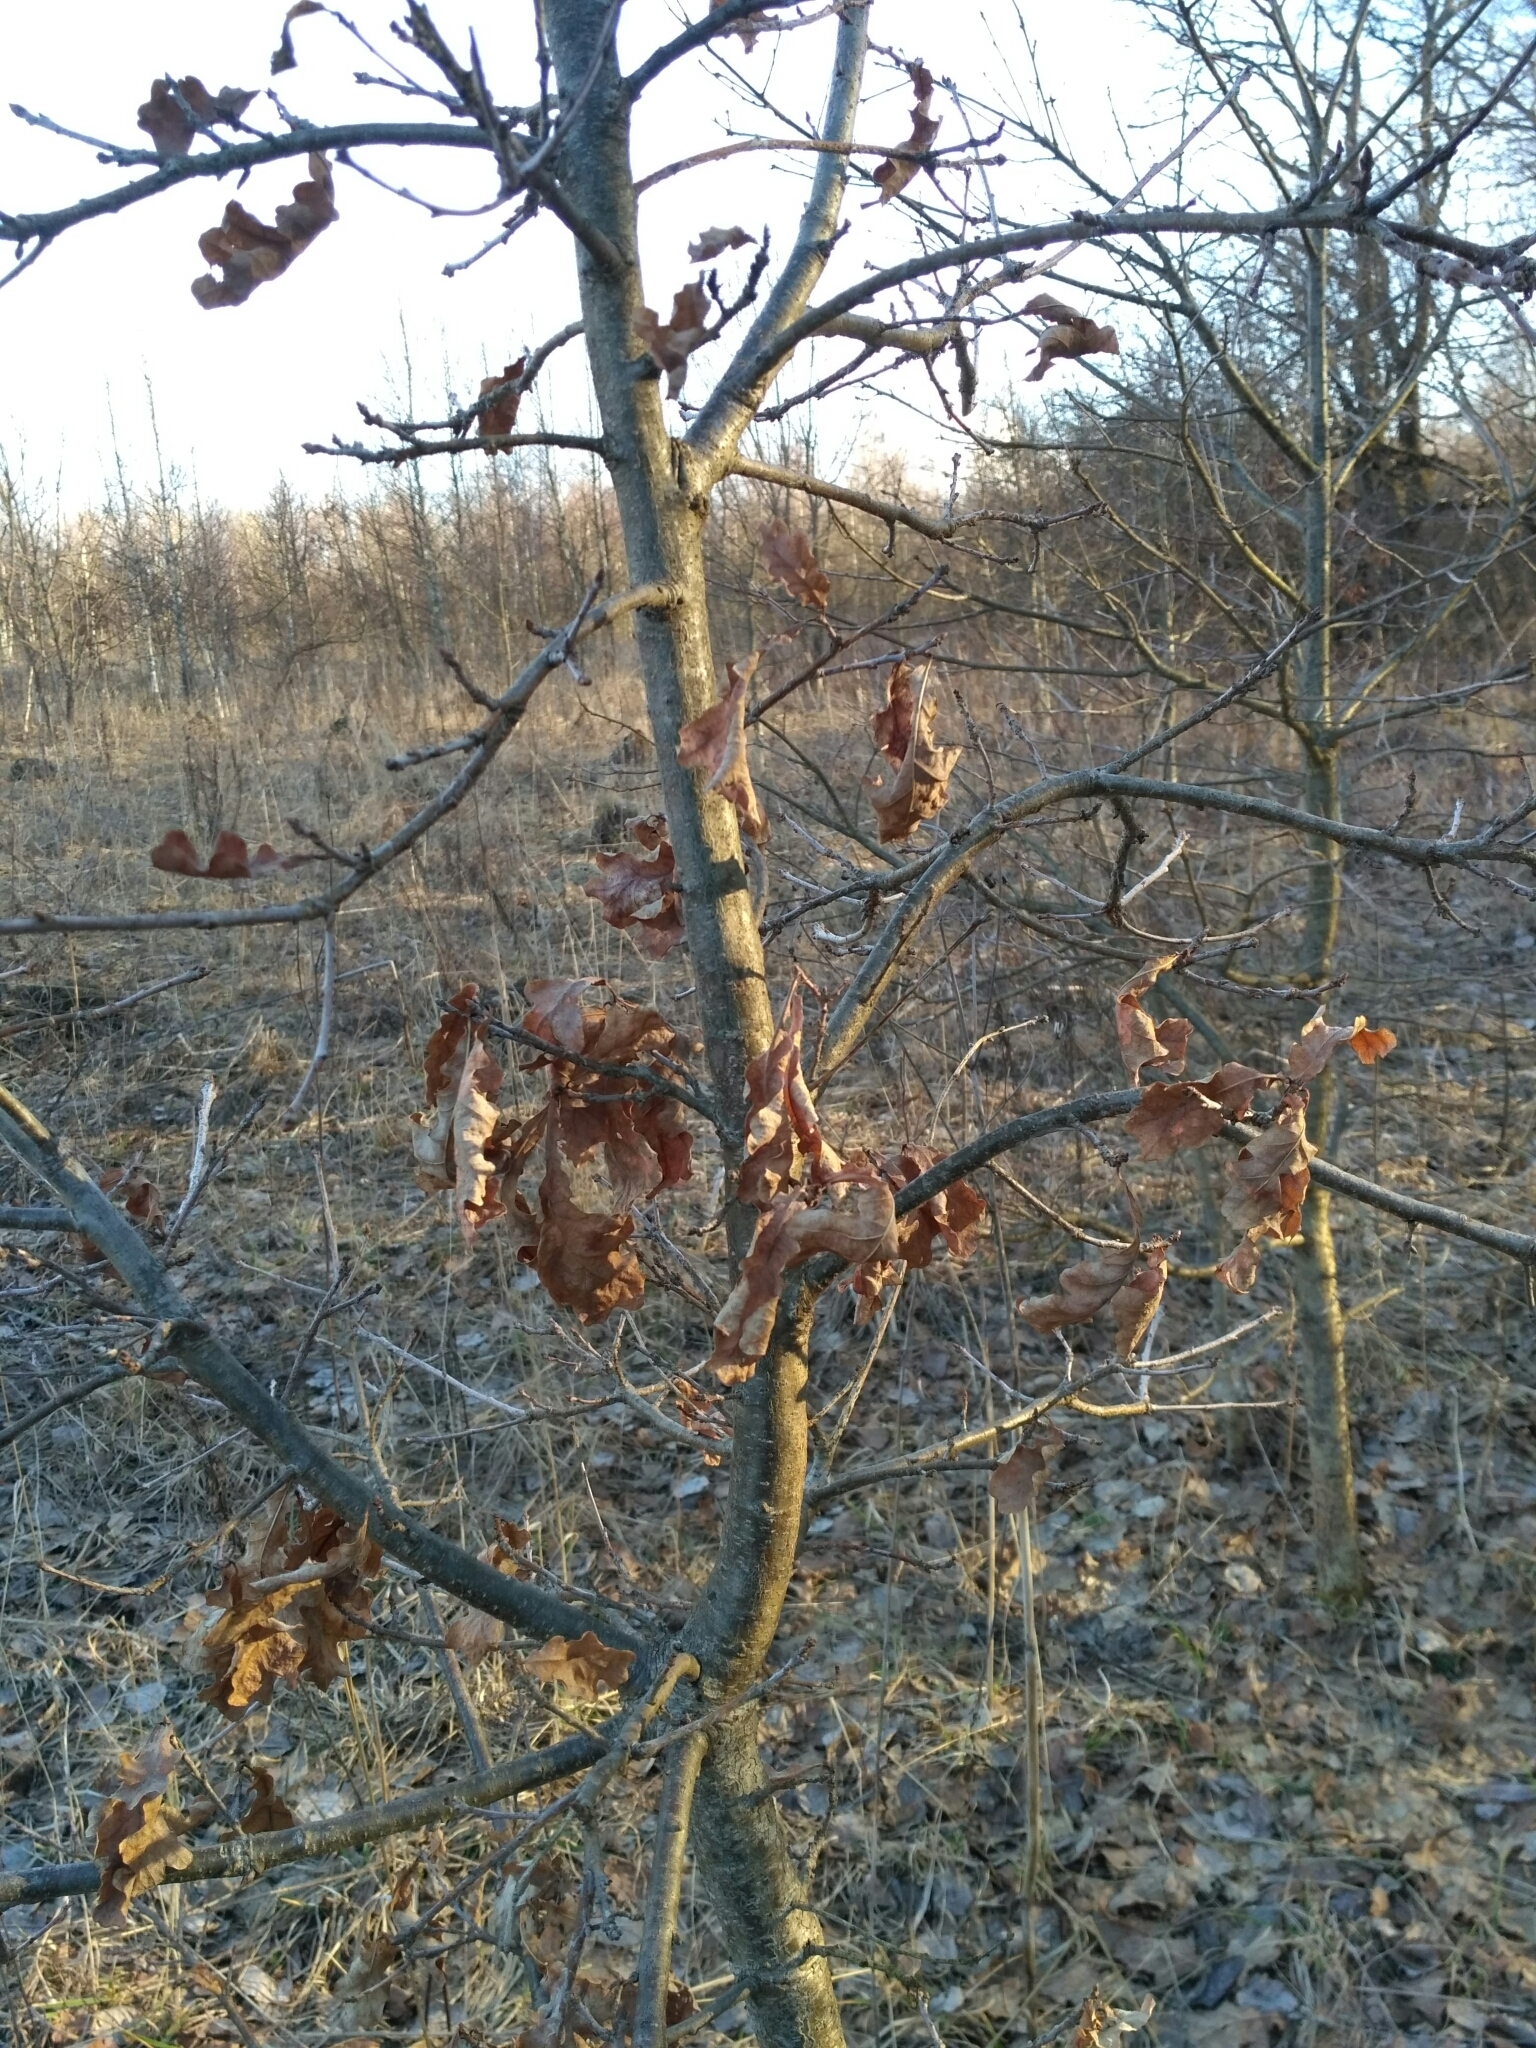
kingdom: Plantae
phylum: Tracheophyta
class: Magnoliopsida
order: Fagales
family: Fagaceae
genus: Quercus
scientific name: Quercus robur
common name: Pedunculate oak
